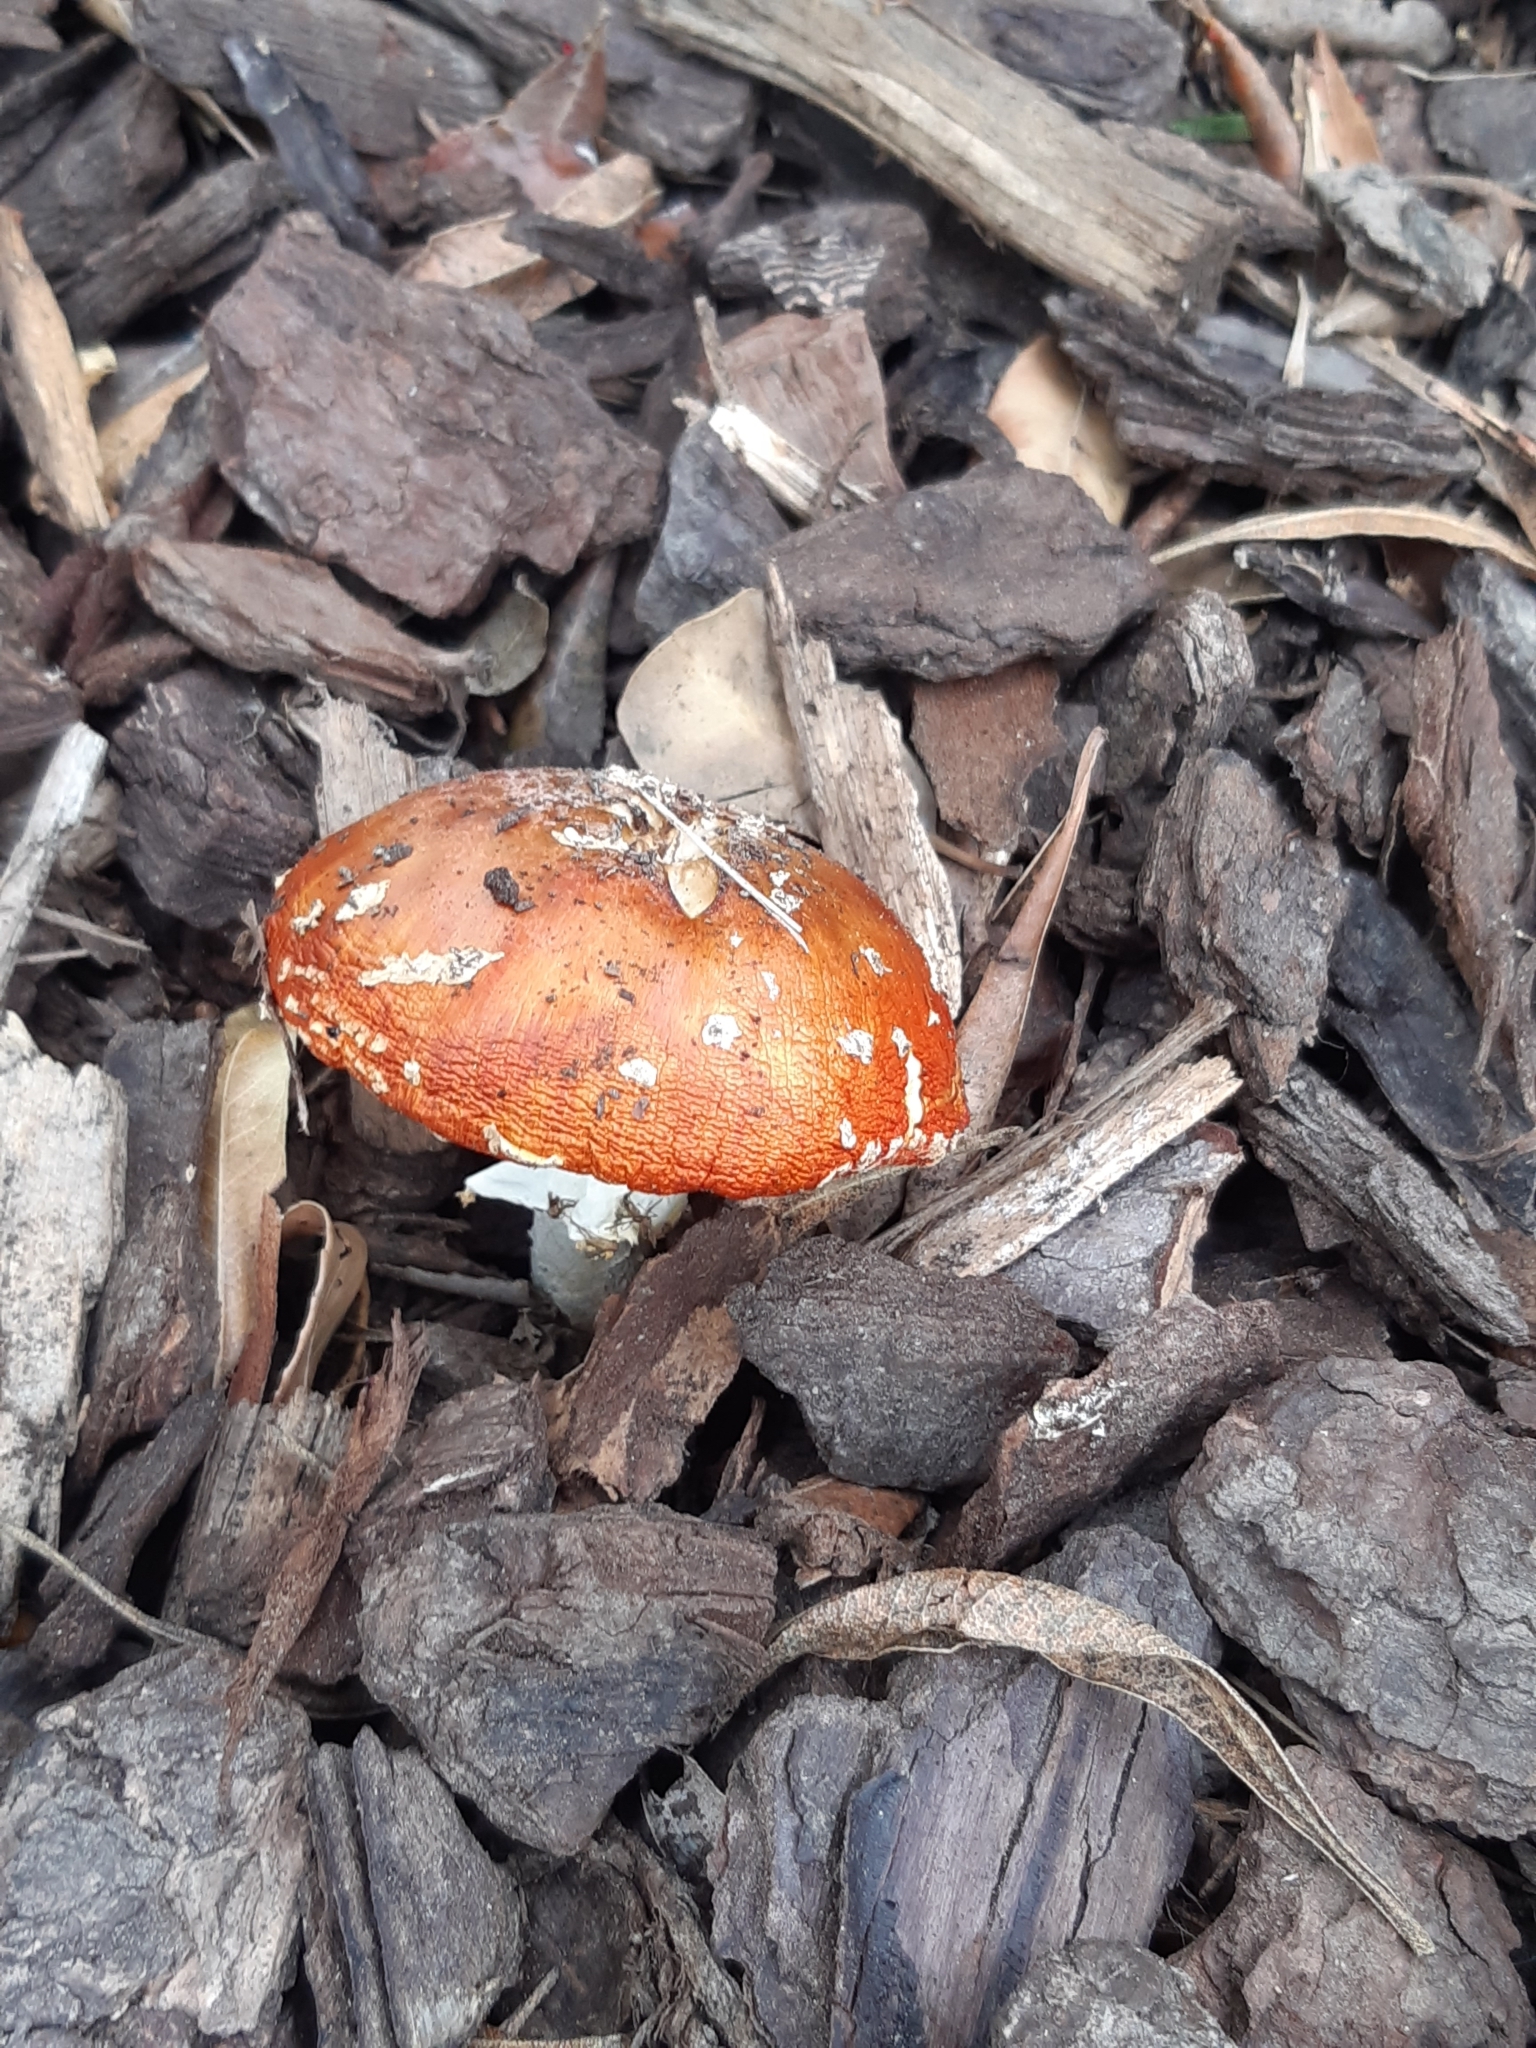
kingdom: Fungi
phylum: Basidiomycota
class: Agaricomycetes
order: Agaricales
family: Amanitaceae
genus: Amanita
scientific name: Amanita muscaria
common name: Fly agaric
